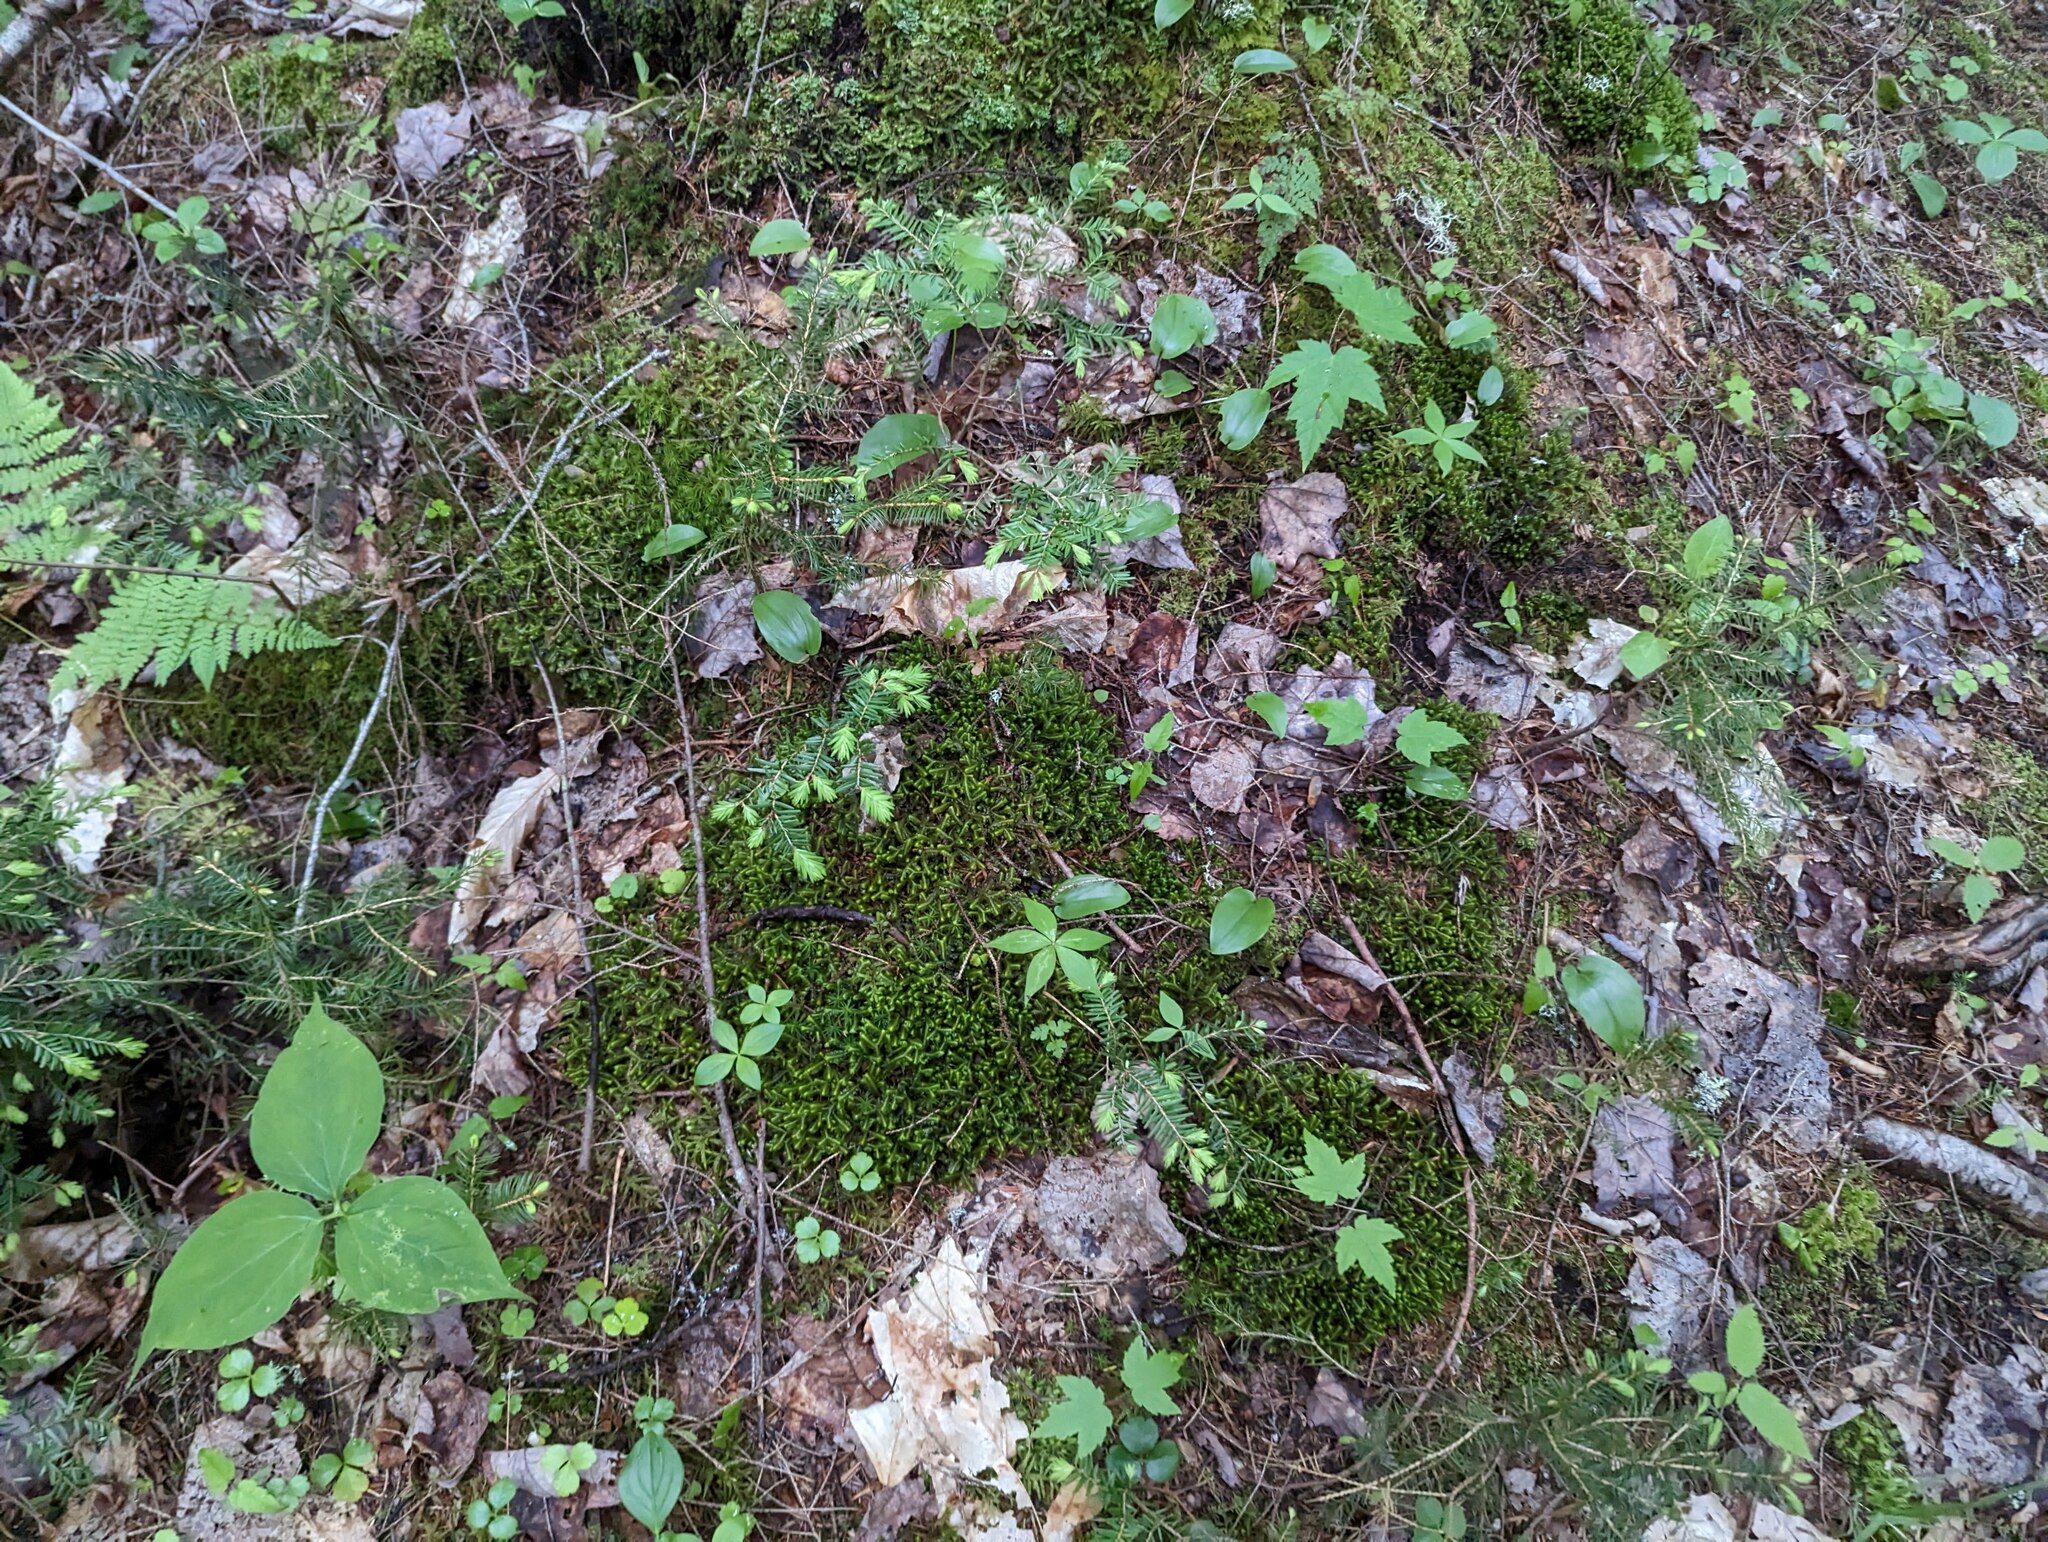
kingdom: Plantae
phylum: Marchantiophyta
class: Jungermanniopsida
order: Jungermanniales
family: Lepidoziaceae
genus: Bazzania
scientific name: Bazzania trilobata
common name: Three-lobed whipwort
